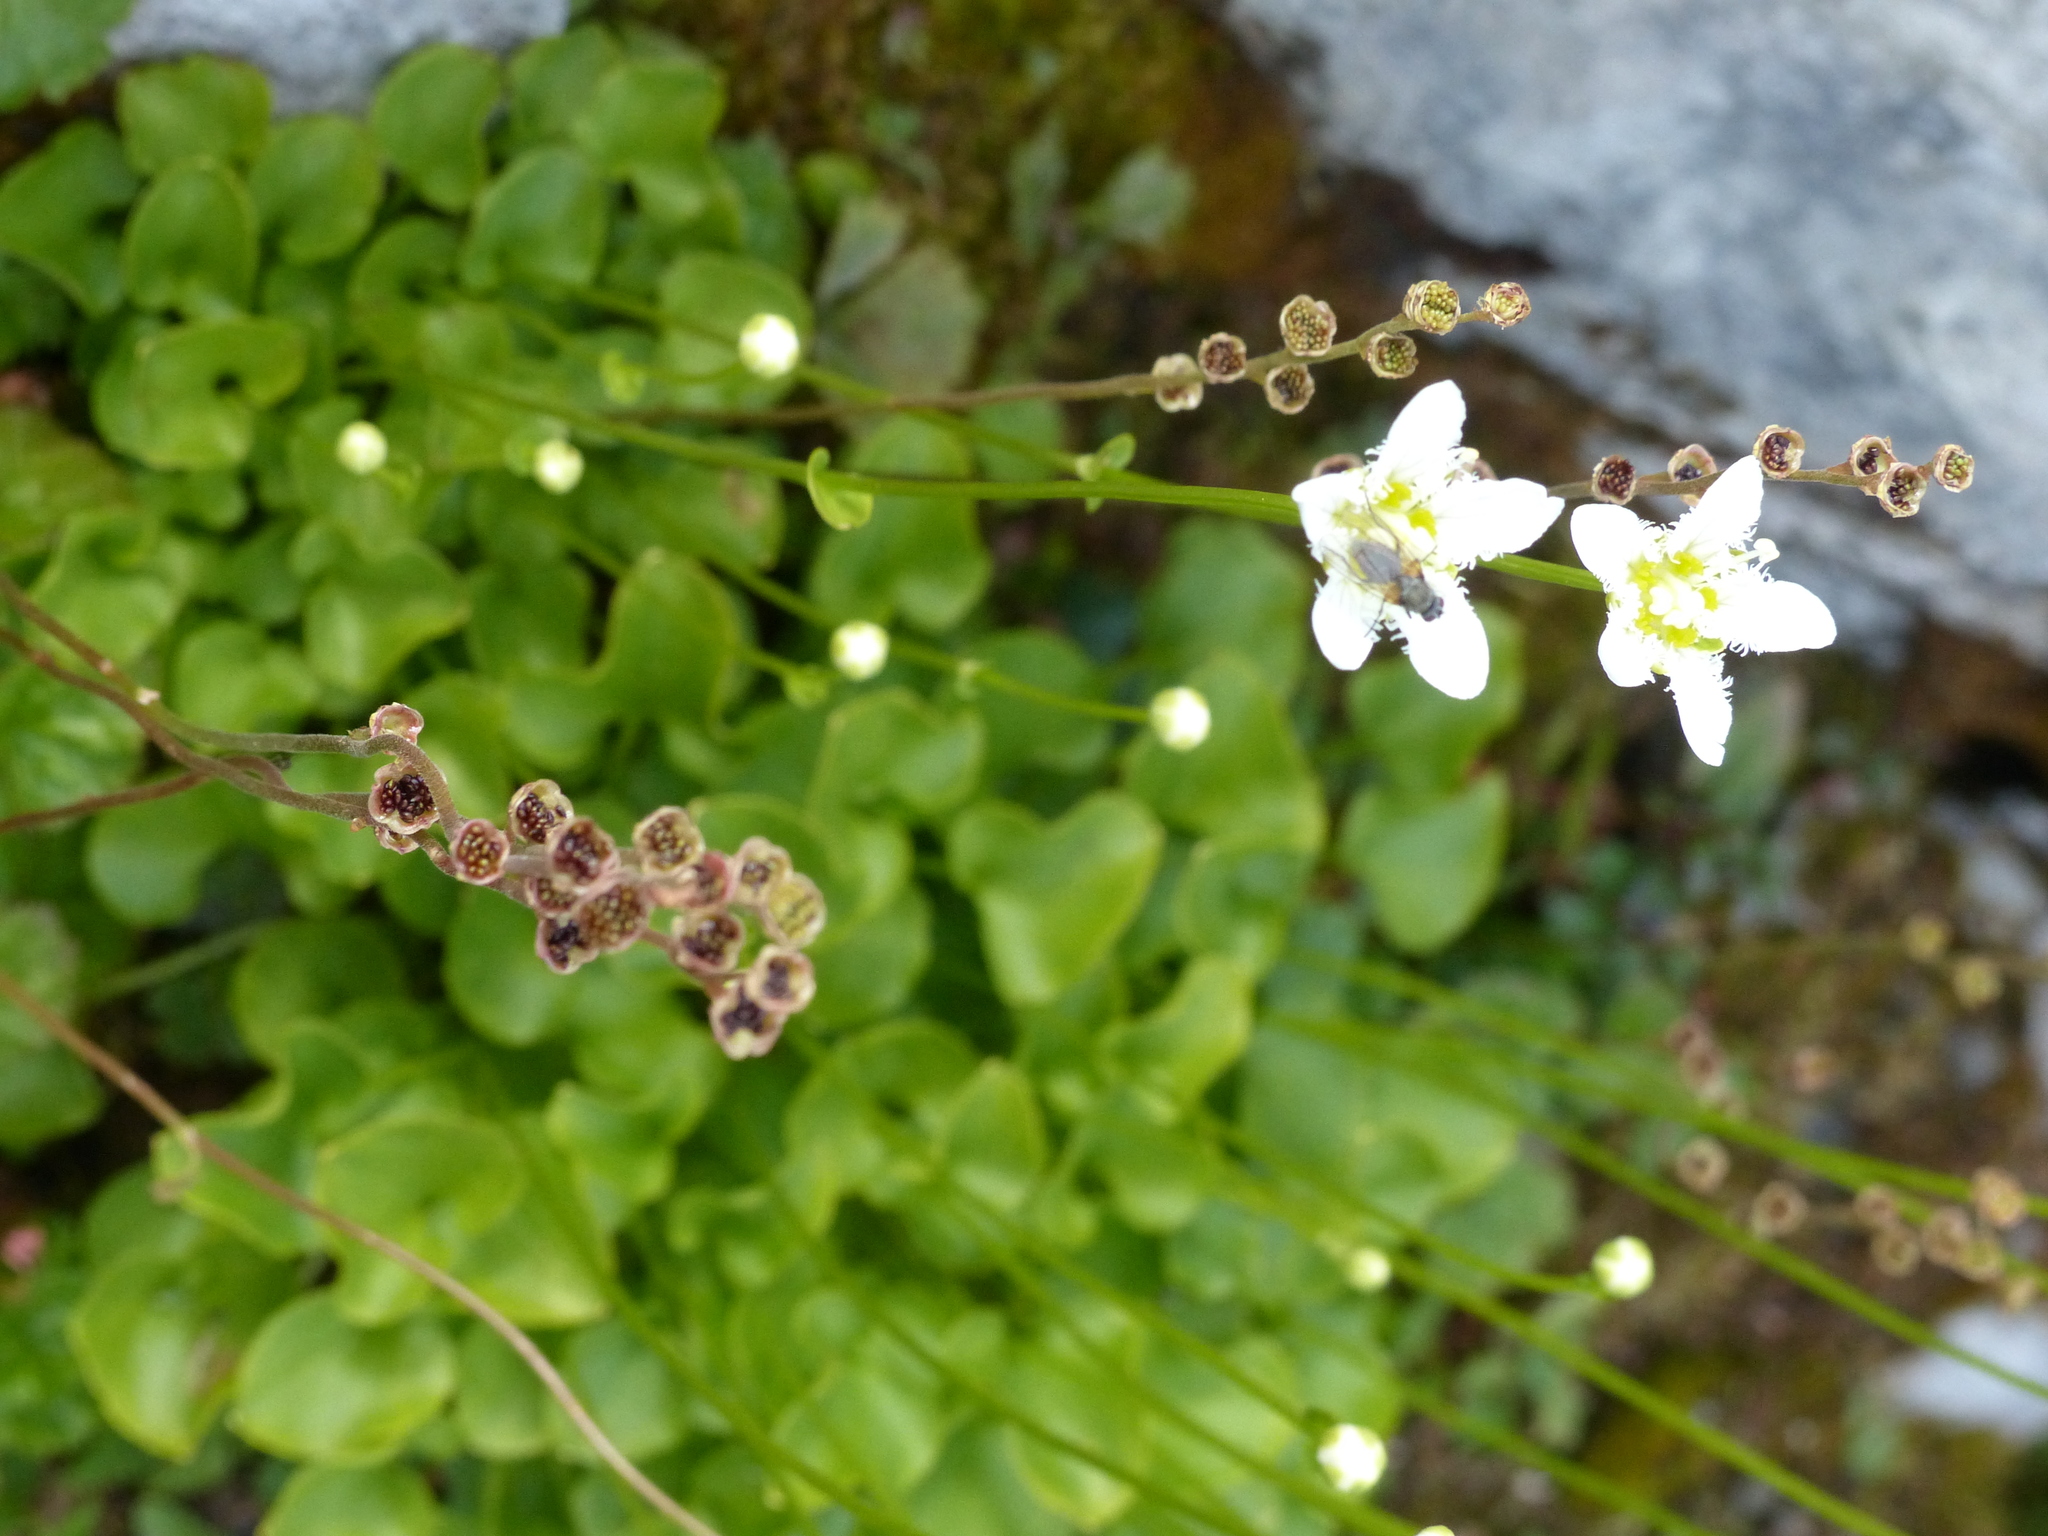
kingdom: Plantae
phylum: Tracheophyta
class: Magnoliopsida
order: Celastrales
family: Parnassiaceae
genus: Parnassia
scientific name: Parnassia fimbriata
